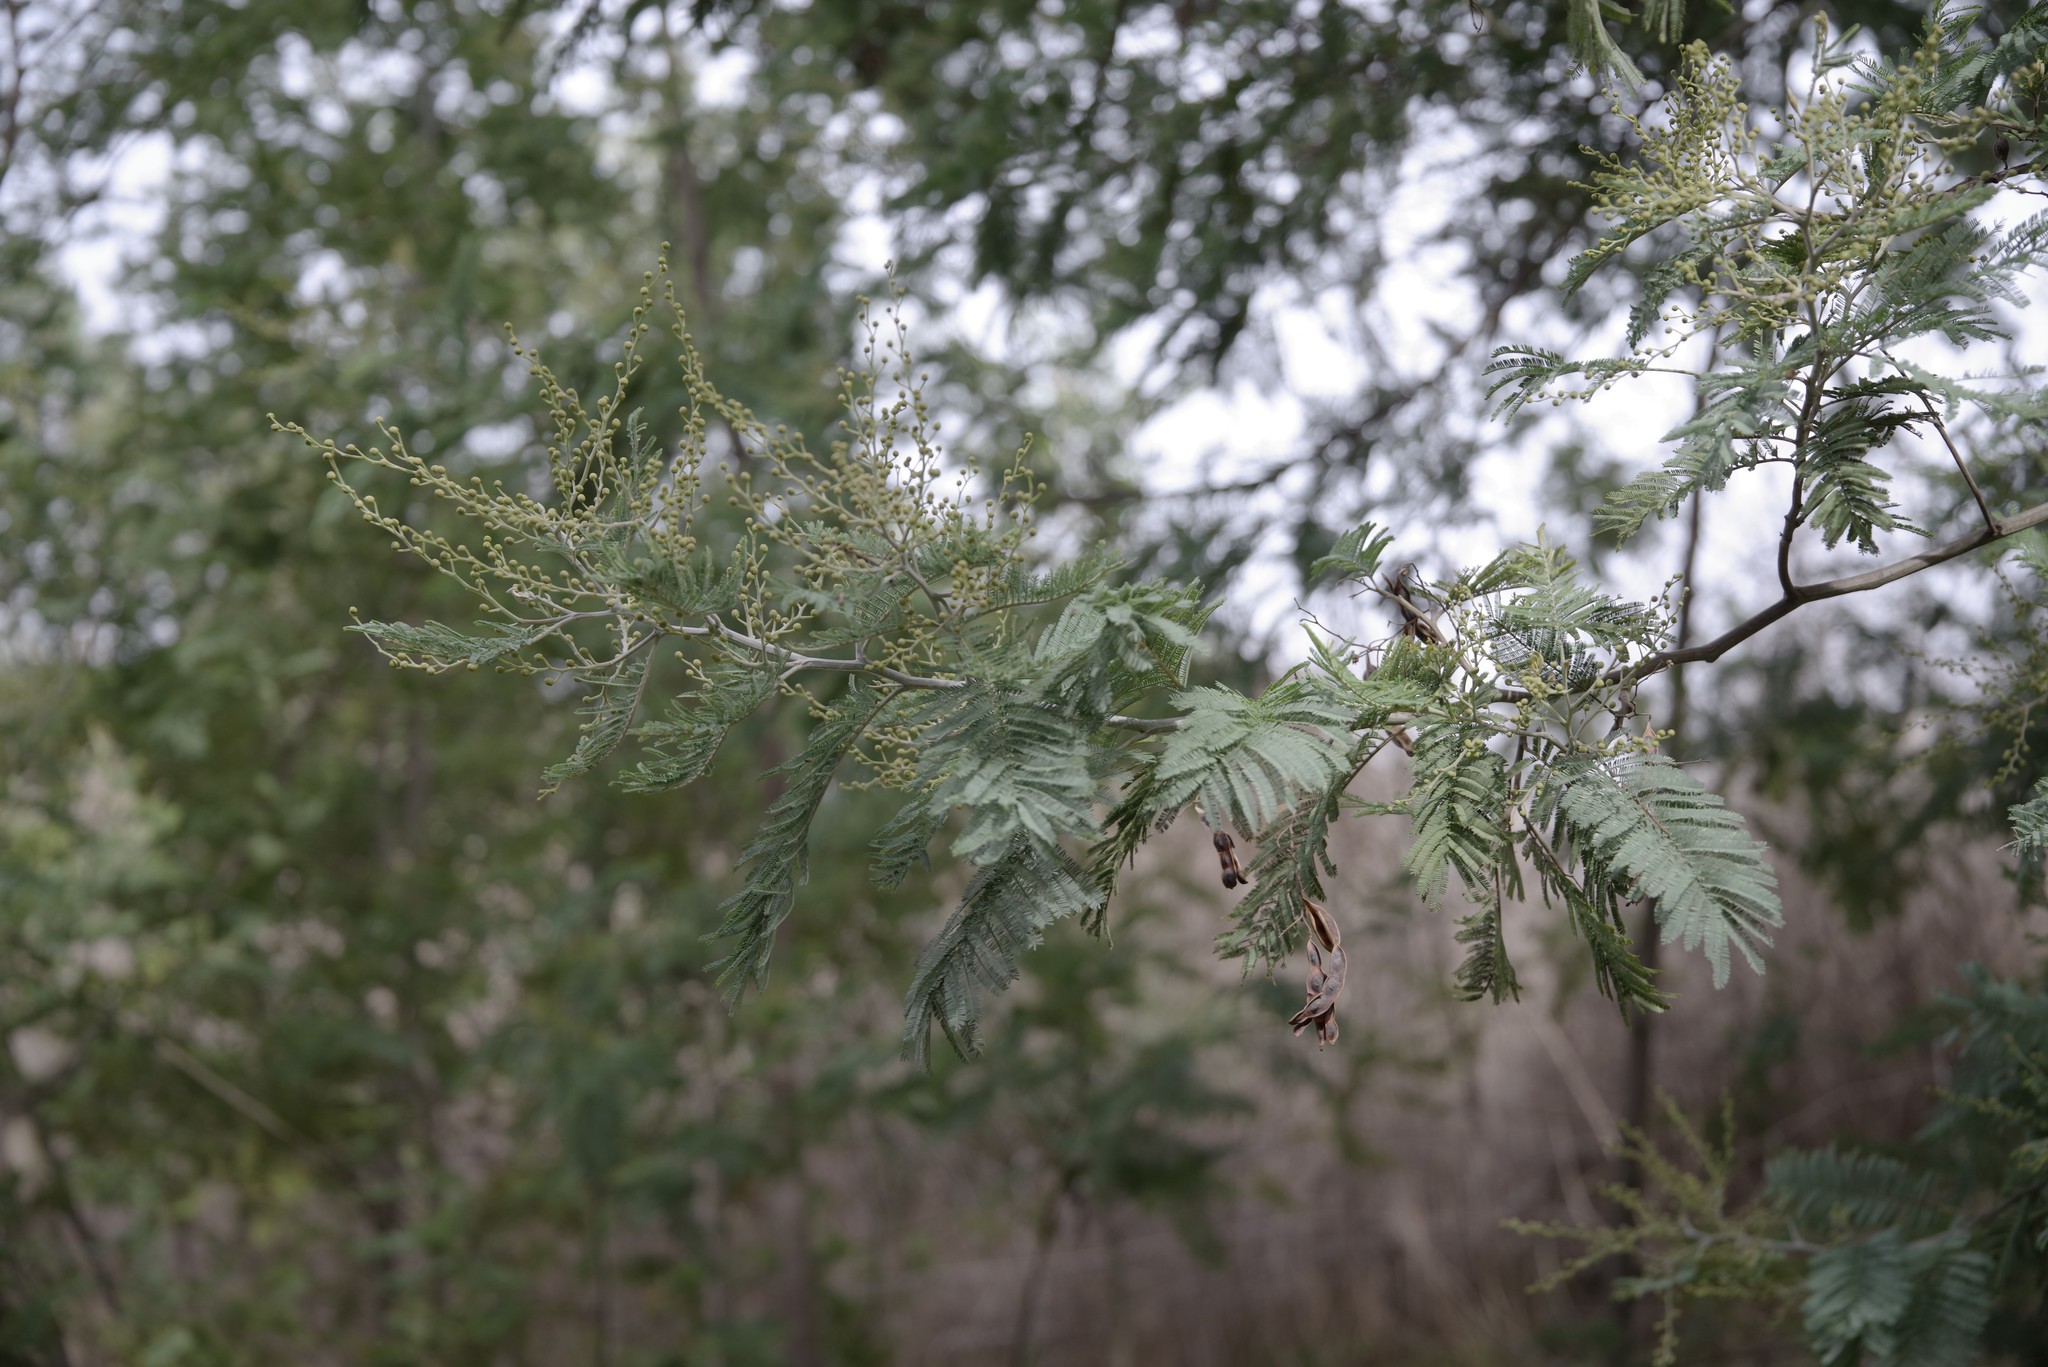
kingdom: Plantae
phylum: Tracheophyta
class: Magnoliopsida
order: Fabales
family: Fabaceae
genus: Acacia
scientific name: Acacia dealbata
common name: Silver wattle
